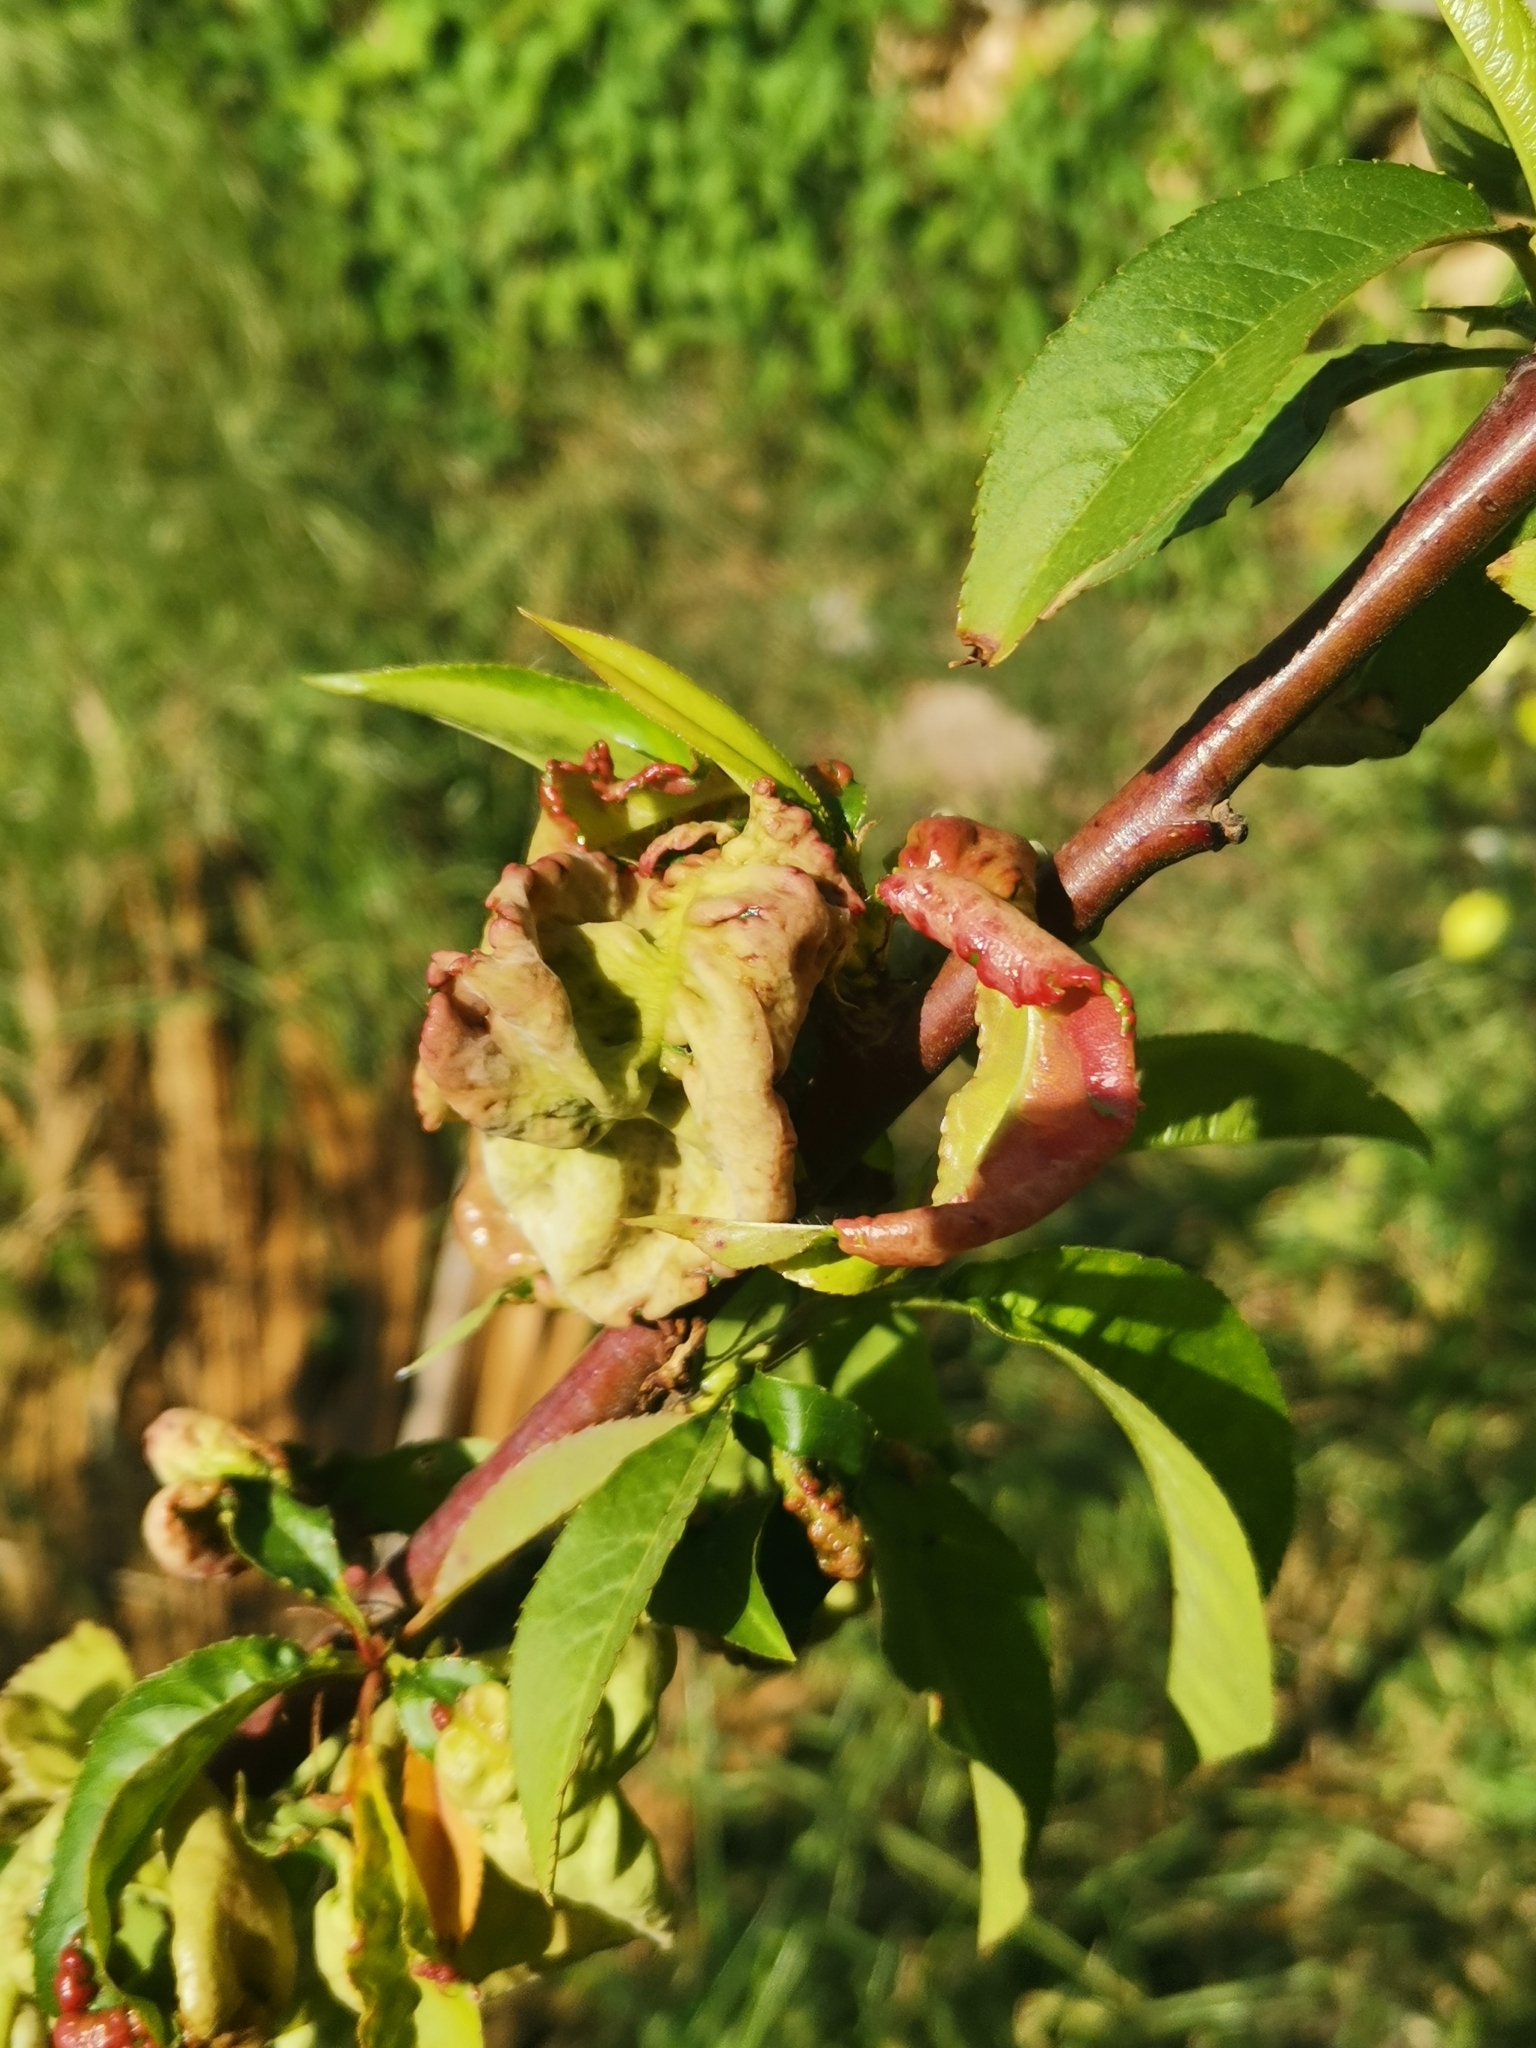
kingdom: Fungi
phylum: Ascomycota
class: Taphrinomycetes
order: Taphrinales
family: Taphrinaceae
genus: Taphrina
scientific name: Taphrina deformans
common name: Peach leaf curl
